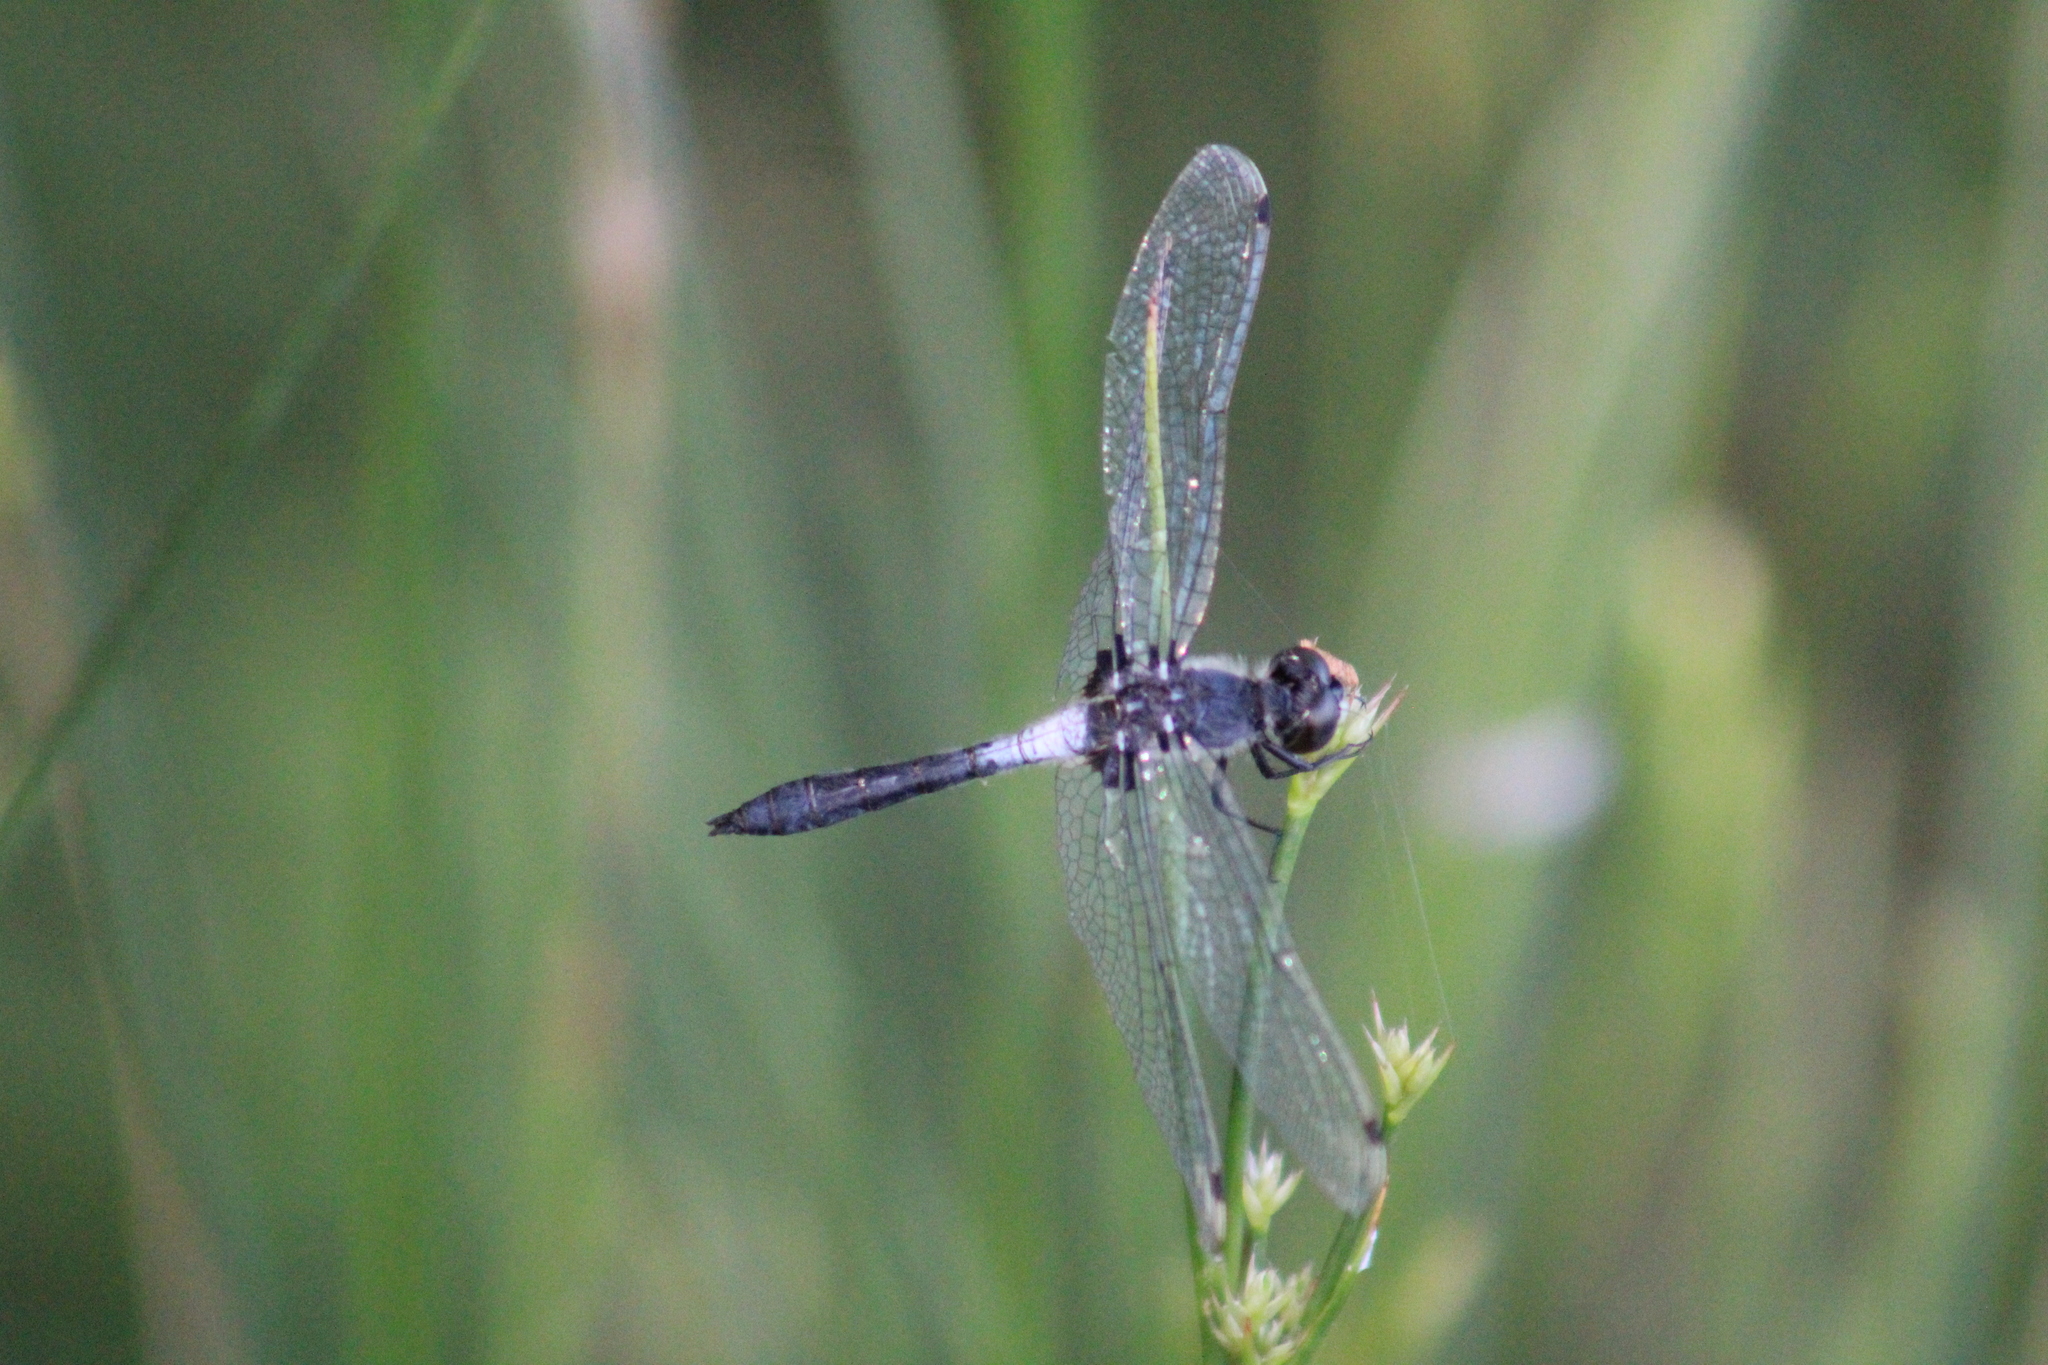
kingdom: Animalia
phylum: Arthropoda
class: Insecta
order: Odonata
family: Libellulidae
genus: Leucorrhinia
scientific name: Leucorrhinia frigida
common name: Frosted whiteface
